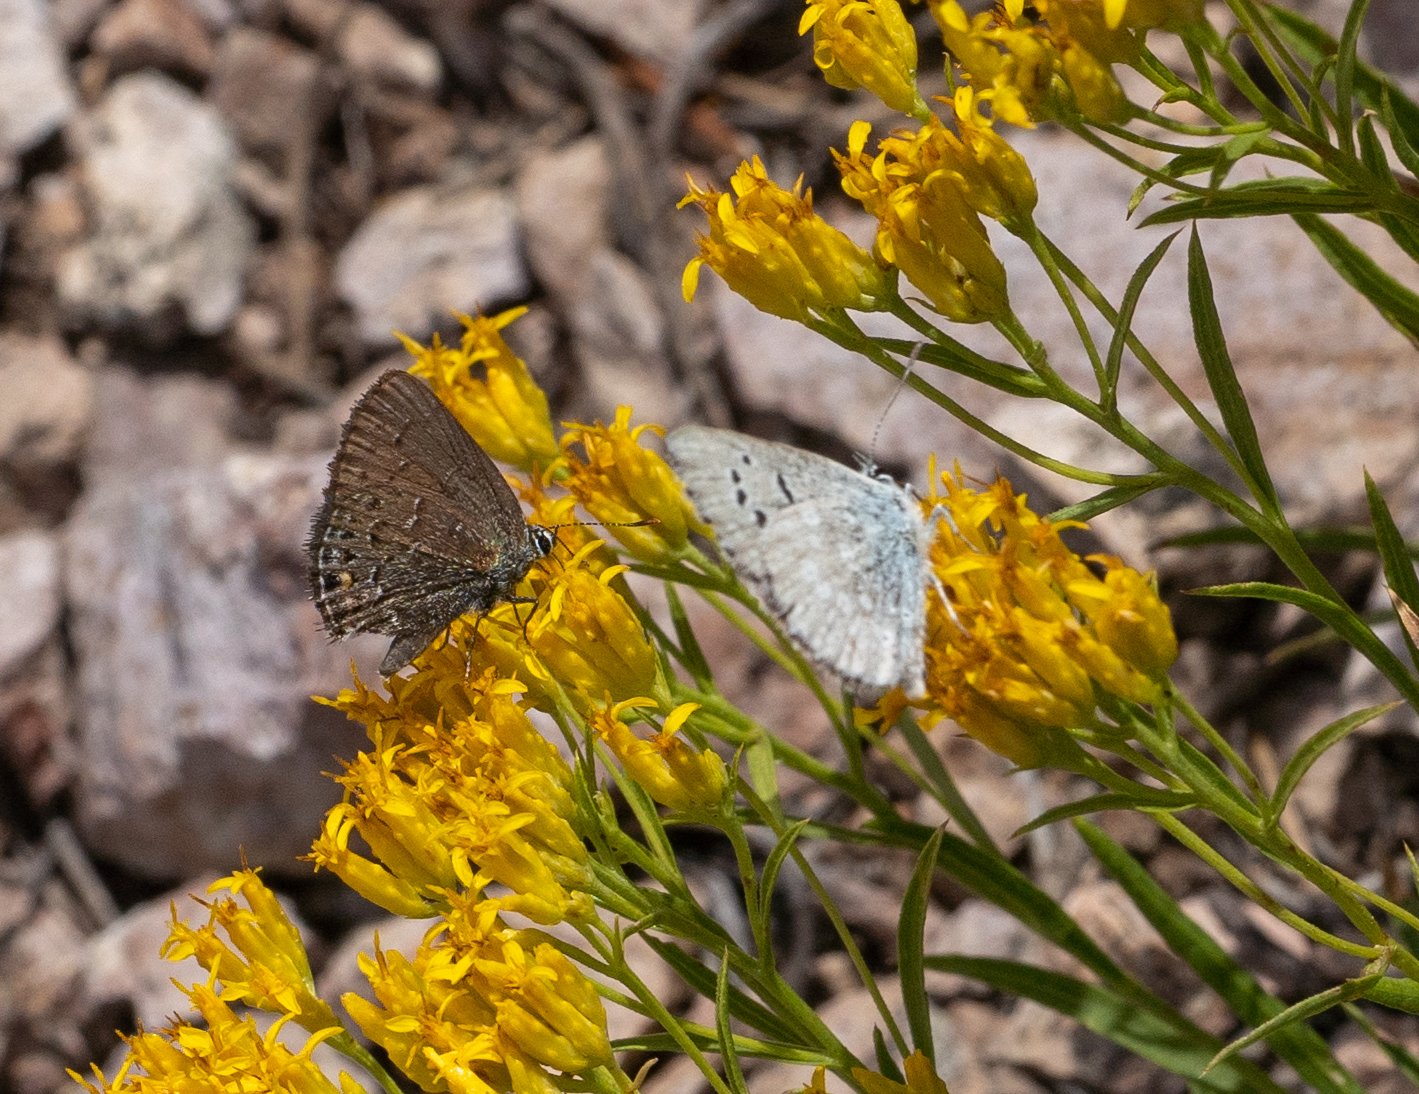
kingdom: Animalia
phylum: Arthropoda
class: Insecta
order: Lepidoptera
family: Lycaenidae
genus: Satyrium
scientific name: Satyrium behrii
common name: Behr's hairstreak
